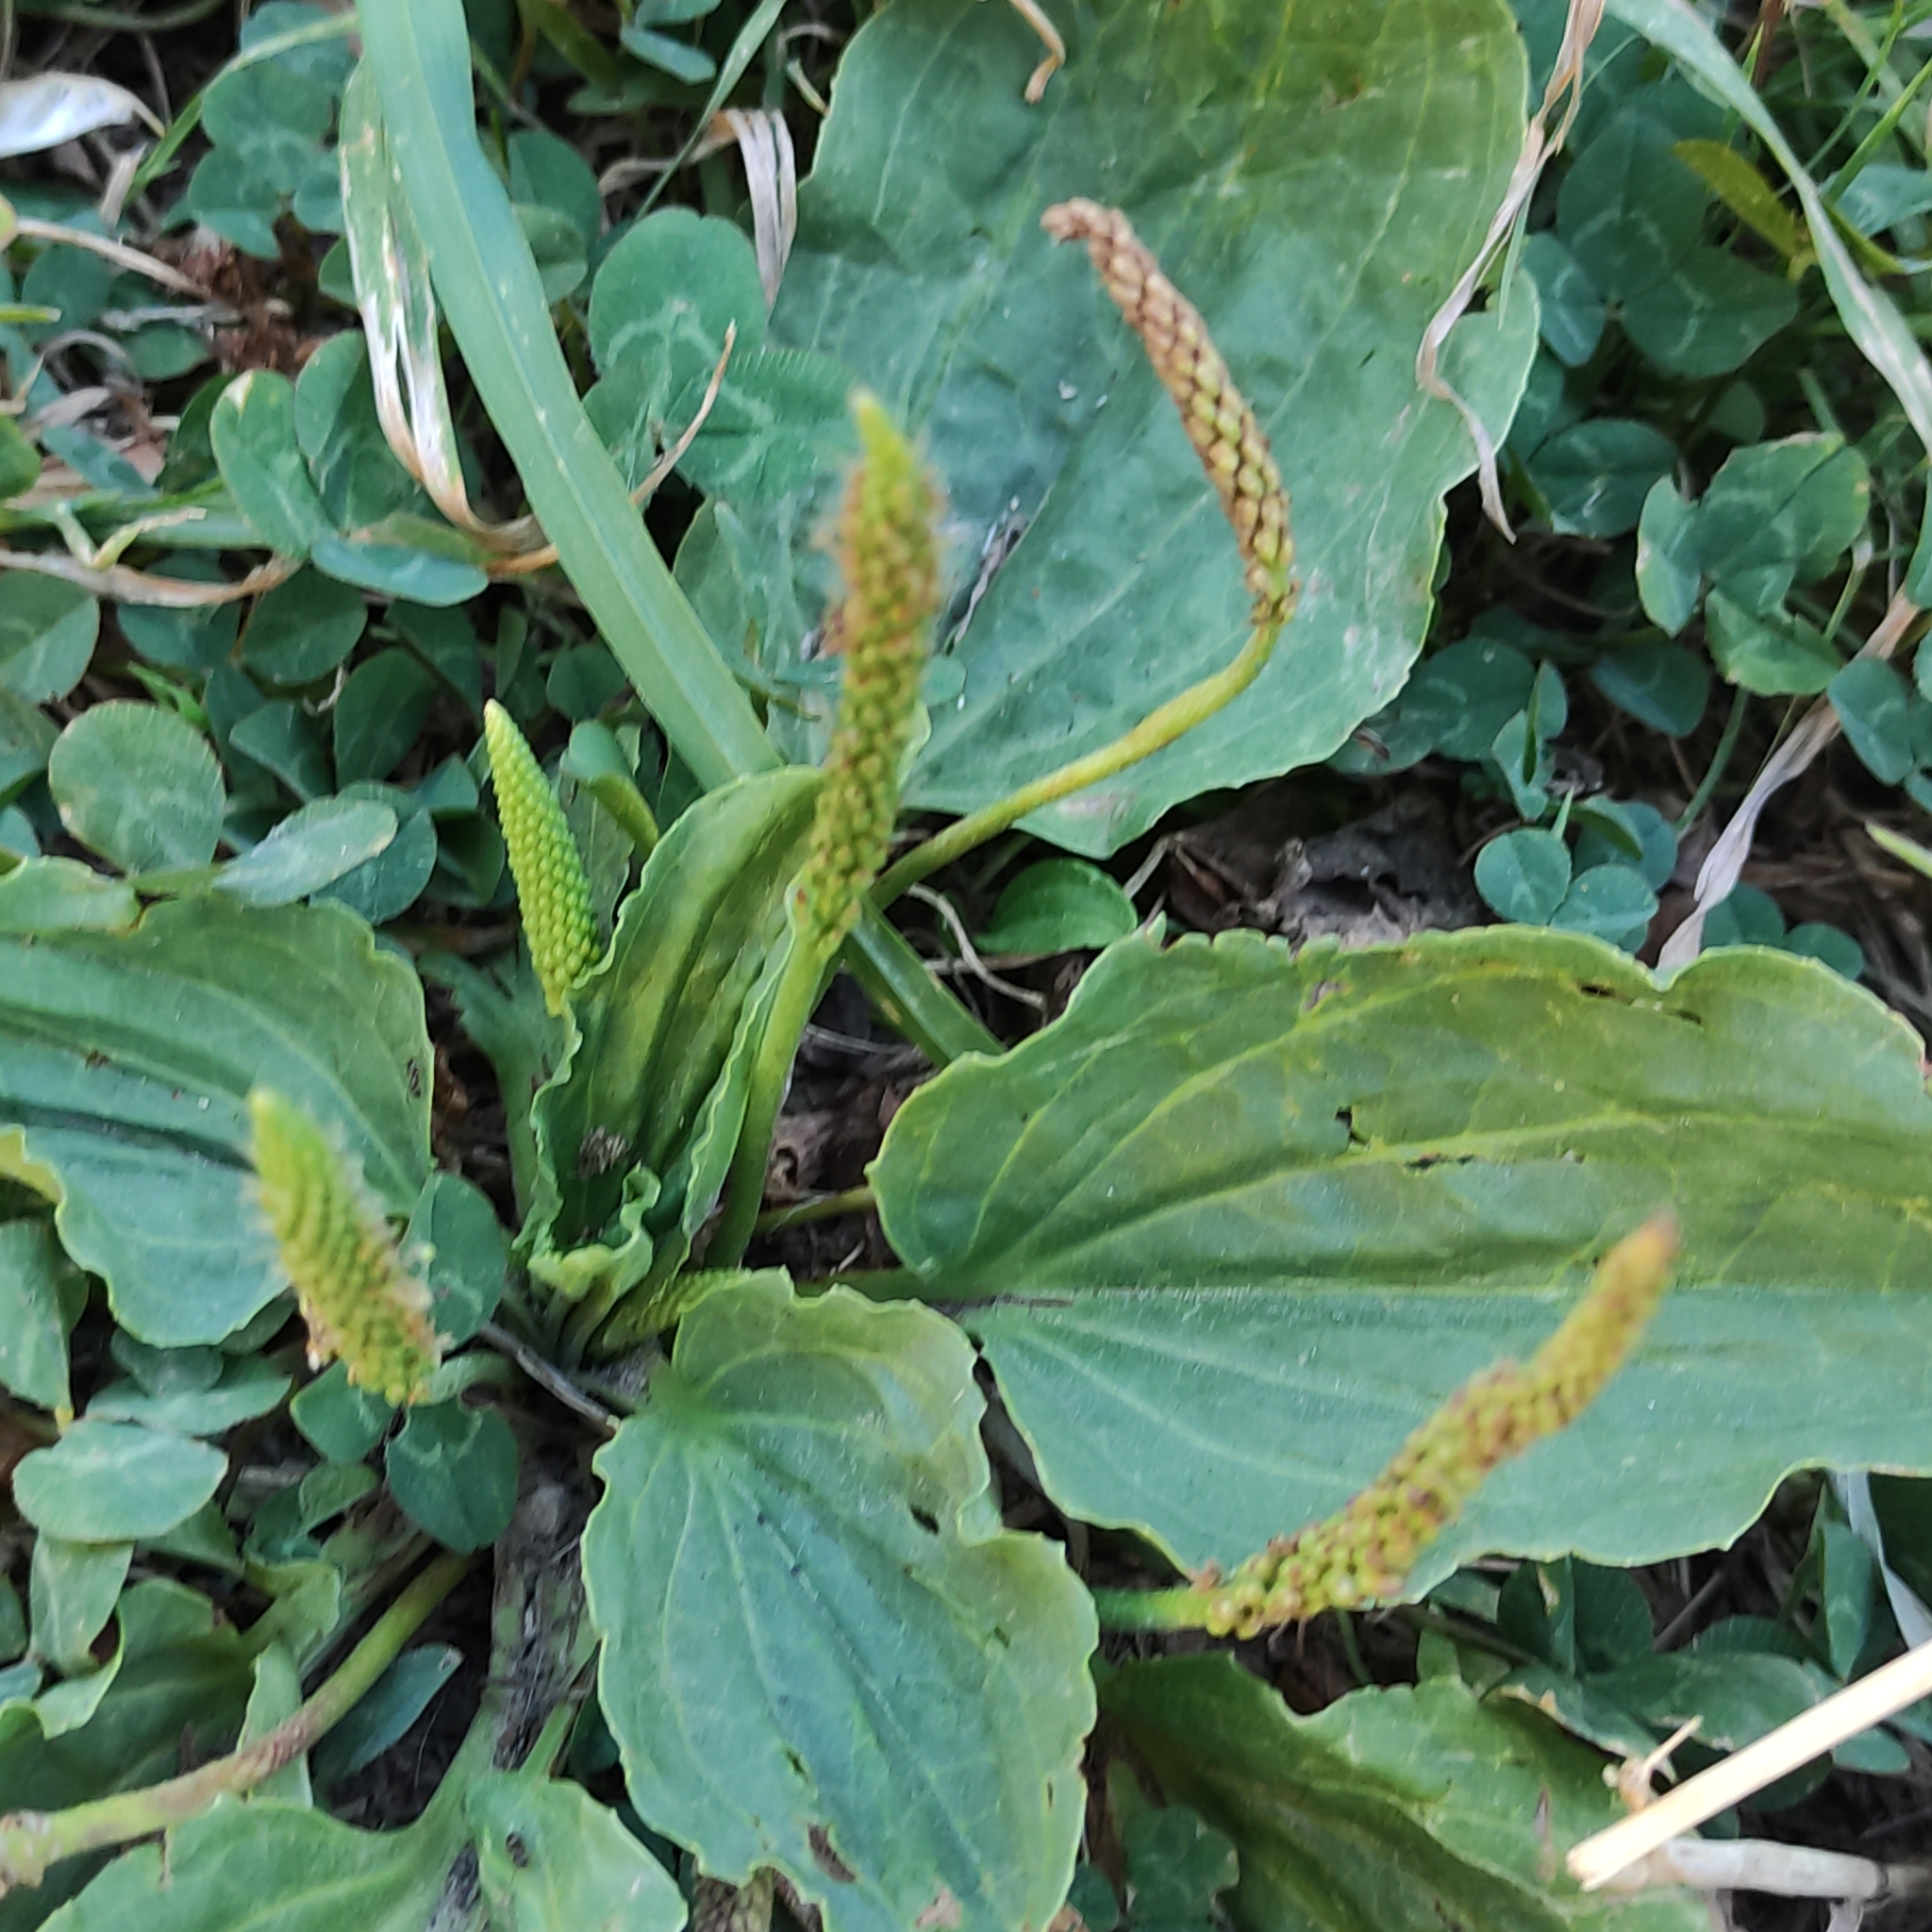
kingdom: Plantae
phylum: Tracheophyta
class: Magnoliopsida
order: Lamiales
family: Plantaginaceae
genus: Plantago
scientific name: Plantago major
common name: Common plantain
